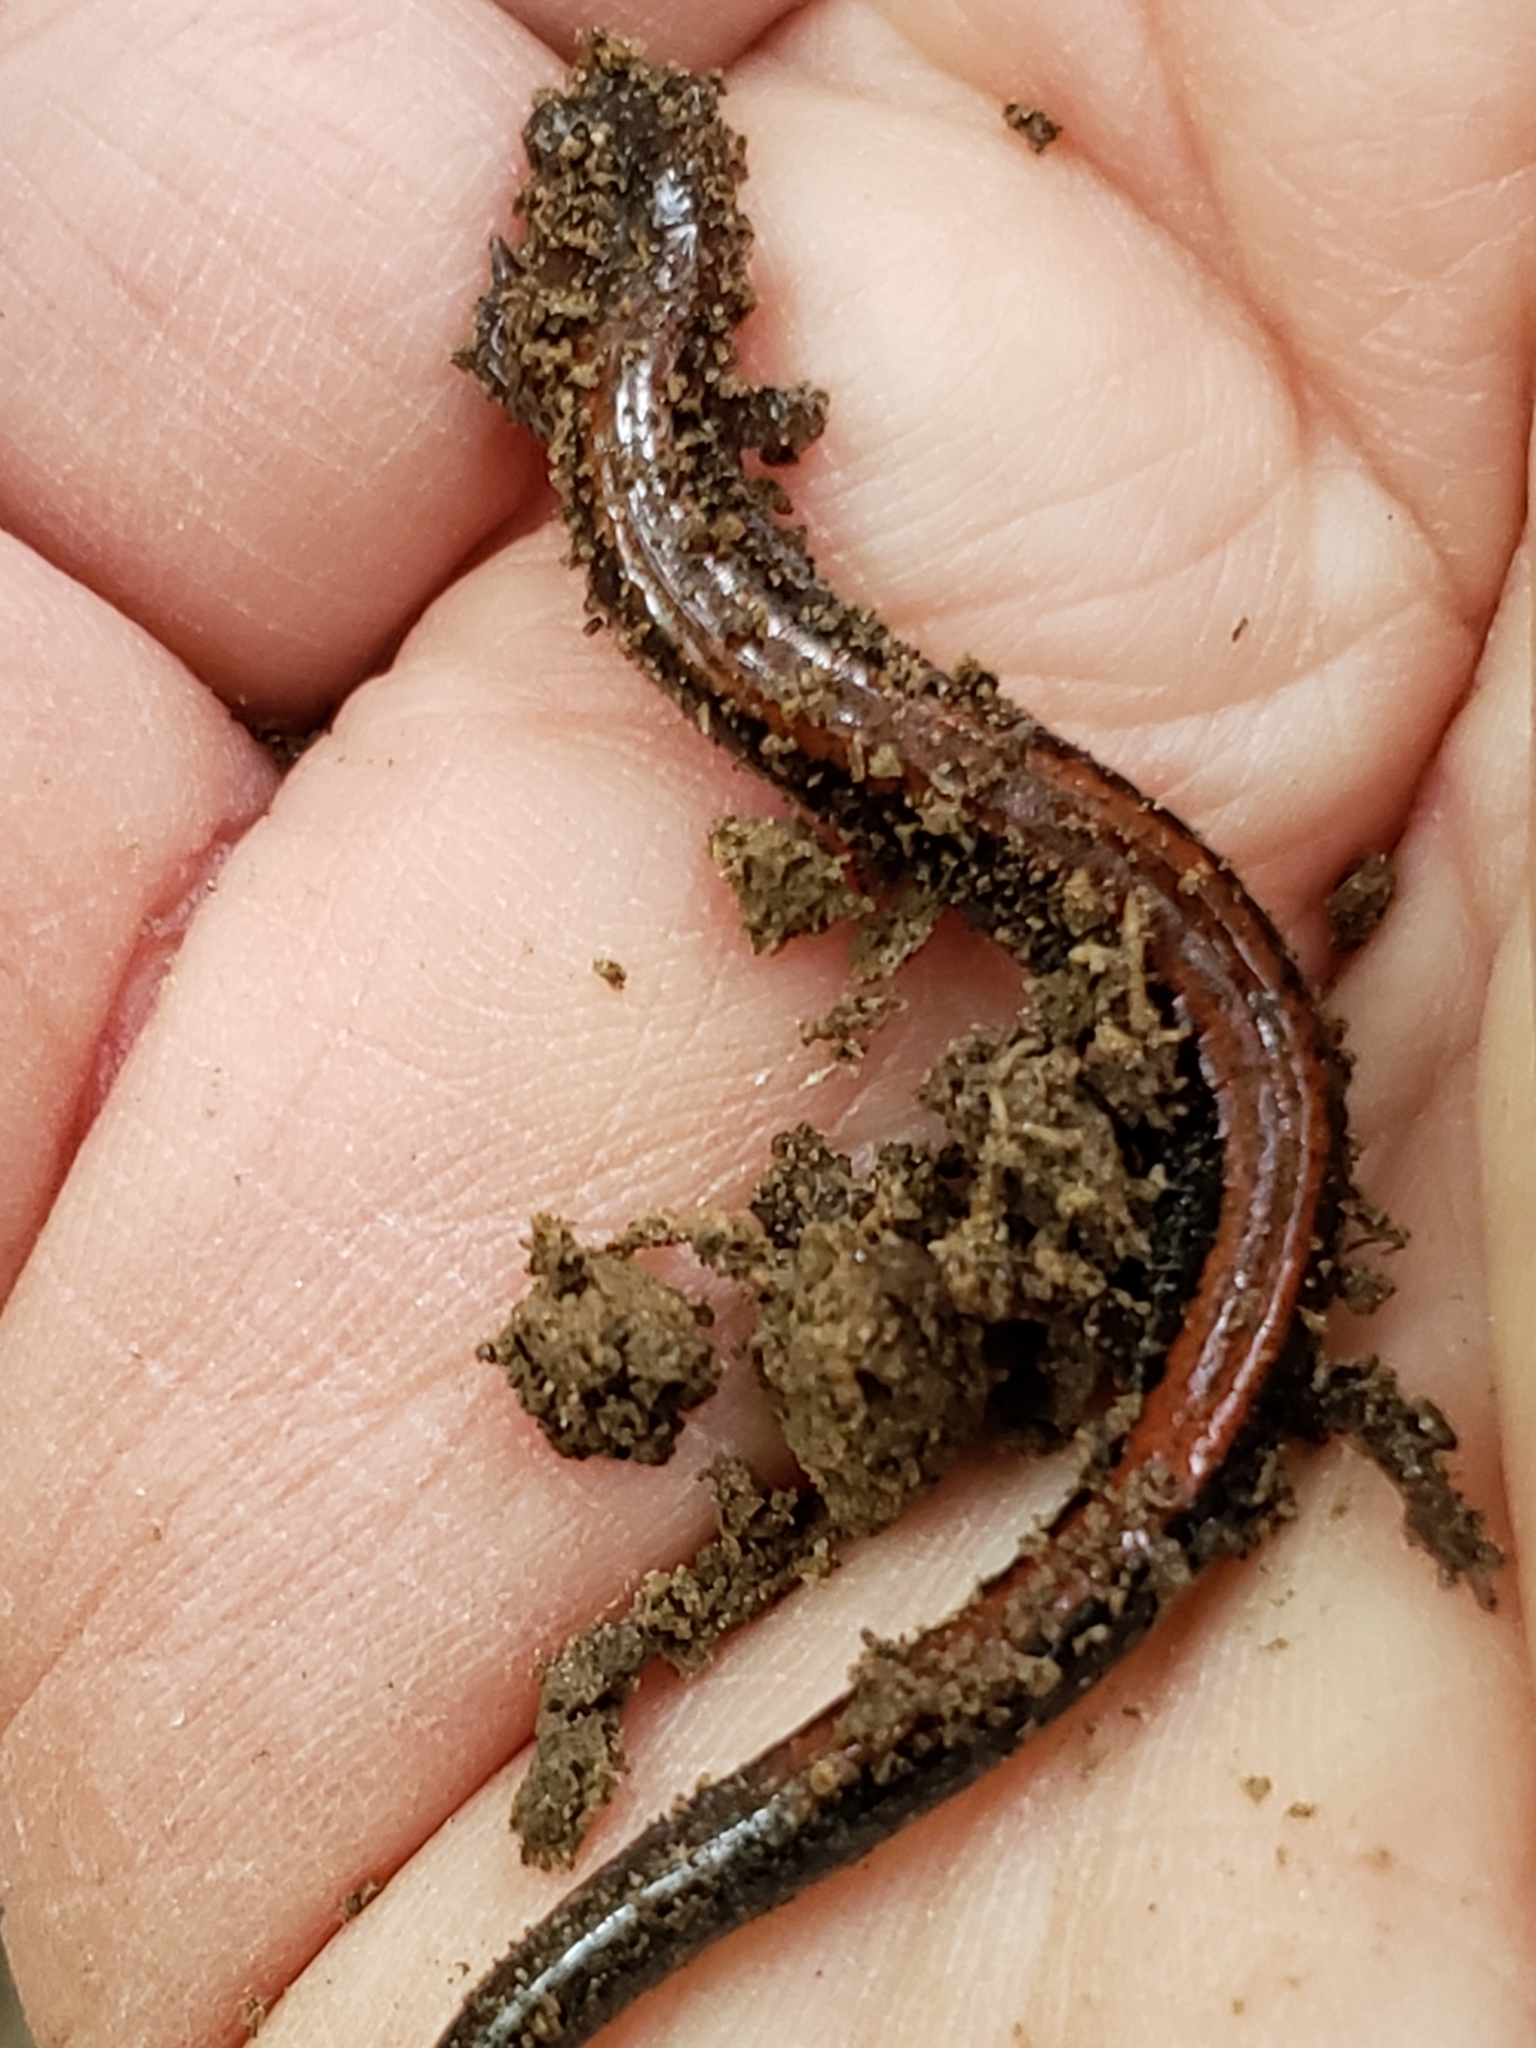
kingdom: Animalia
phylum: Chordata
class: Amphibia
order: Caudata
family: Plethodontidae
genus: Plethodon
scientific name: Plethodon cinereus
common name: Redback salamander
